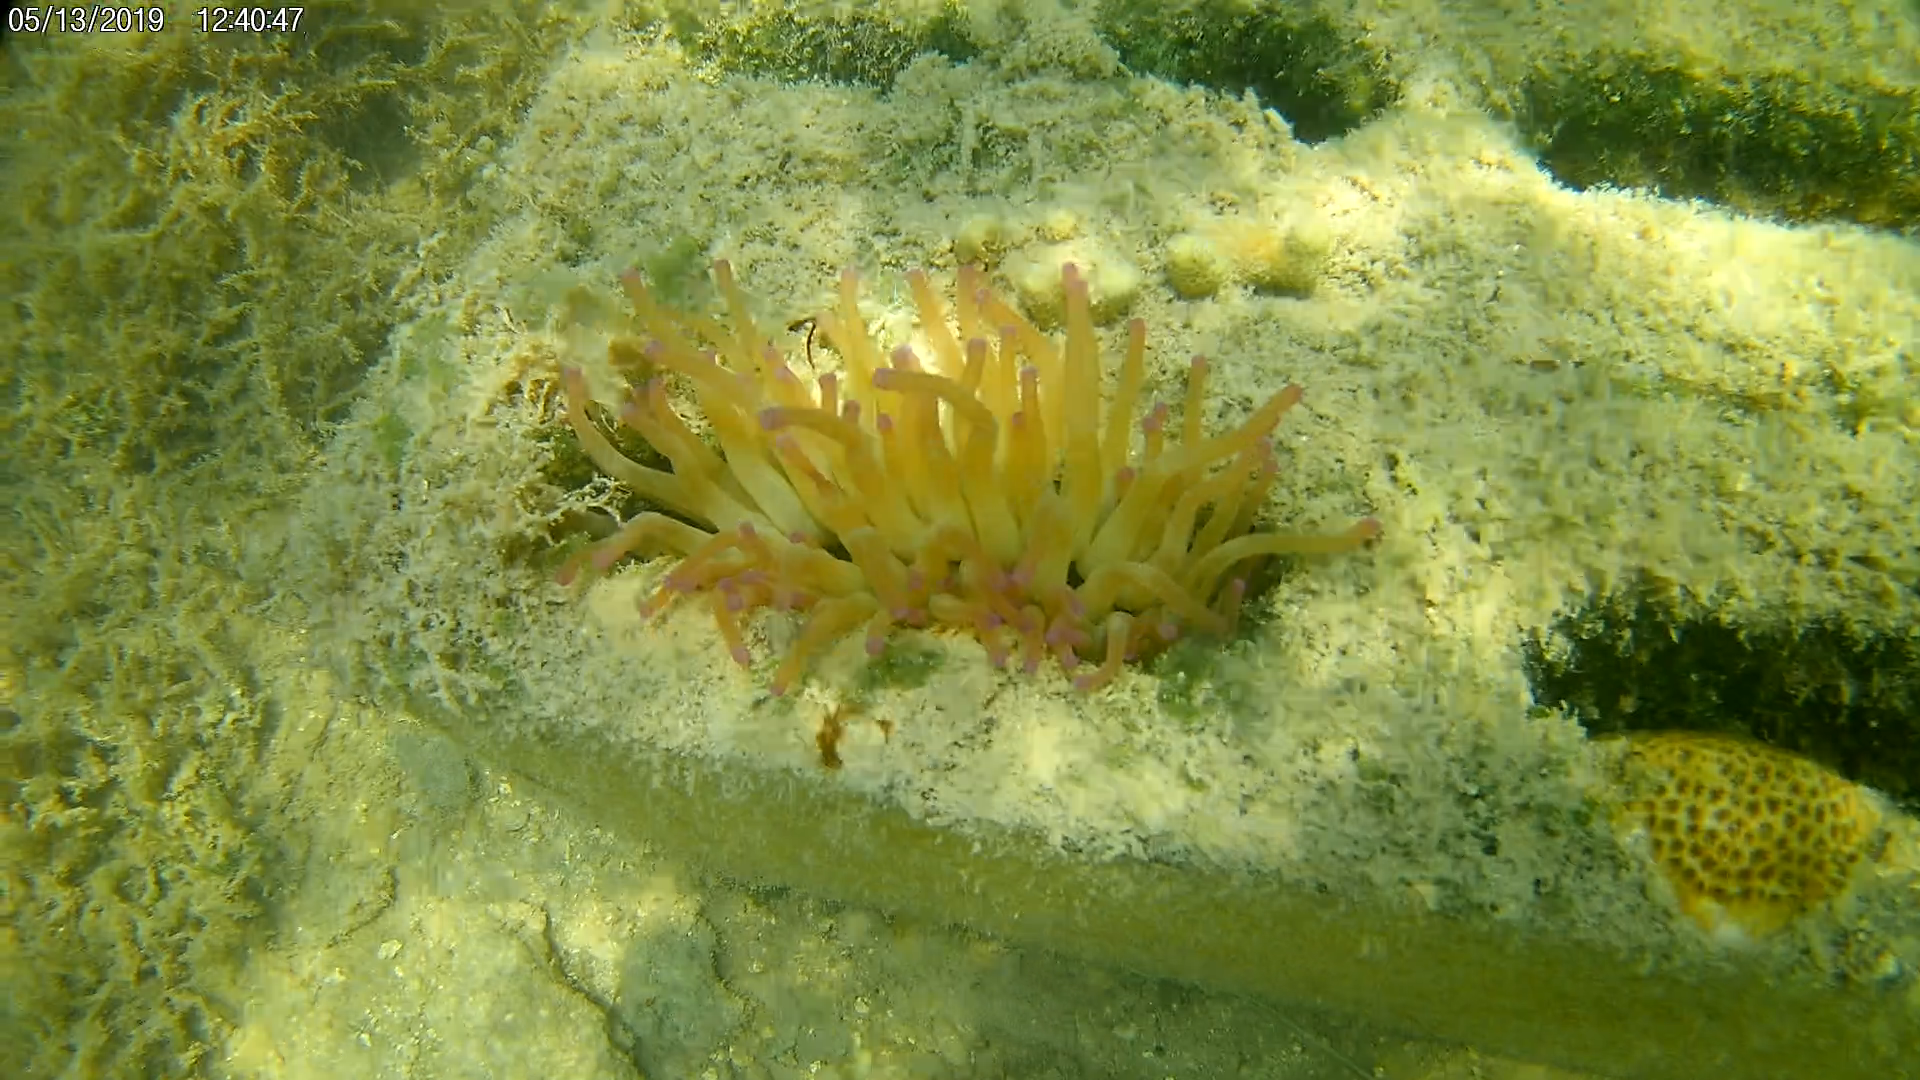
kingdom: Animalia
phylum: Cnidaria
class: Anthozoa
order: Actiniaria
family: Actiniidae
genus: Condylactis
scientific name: Condylactis gigantea
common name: Giant caribbean anemone
